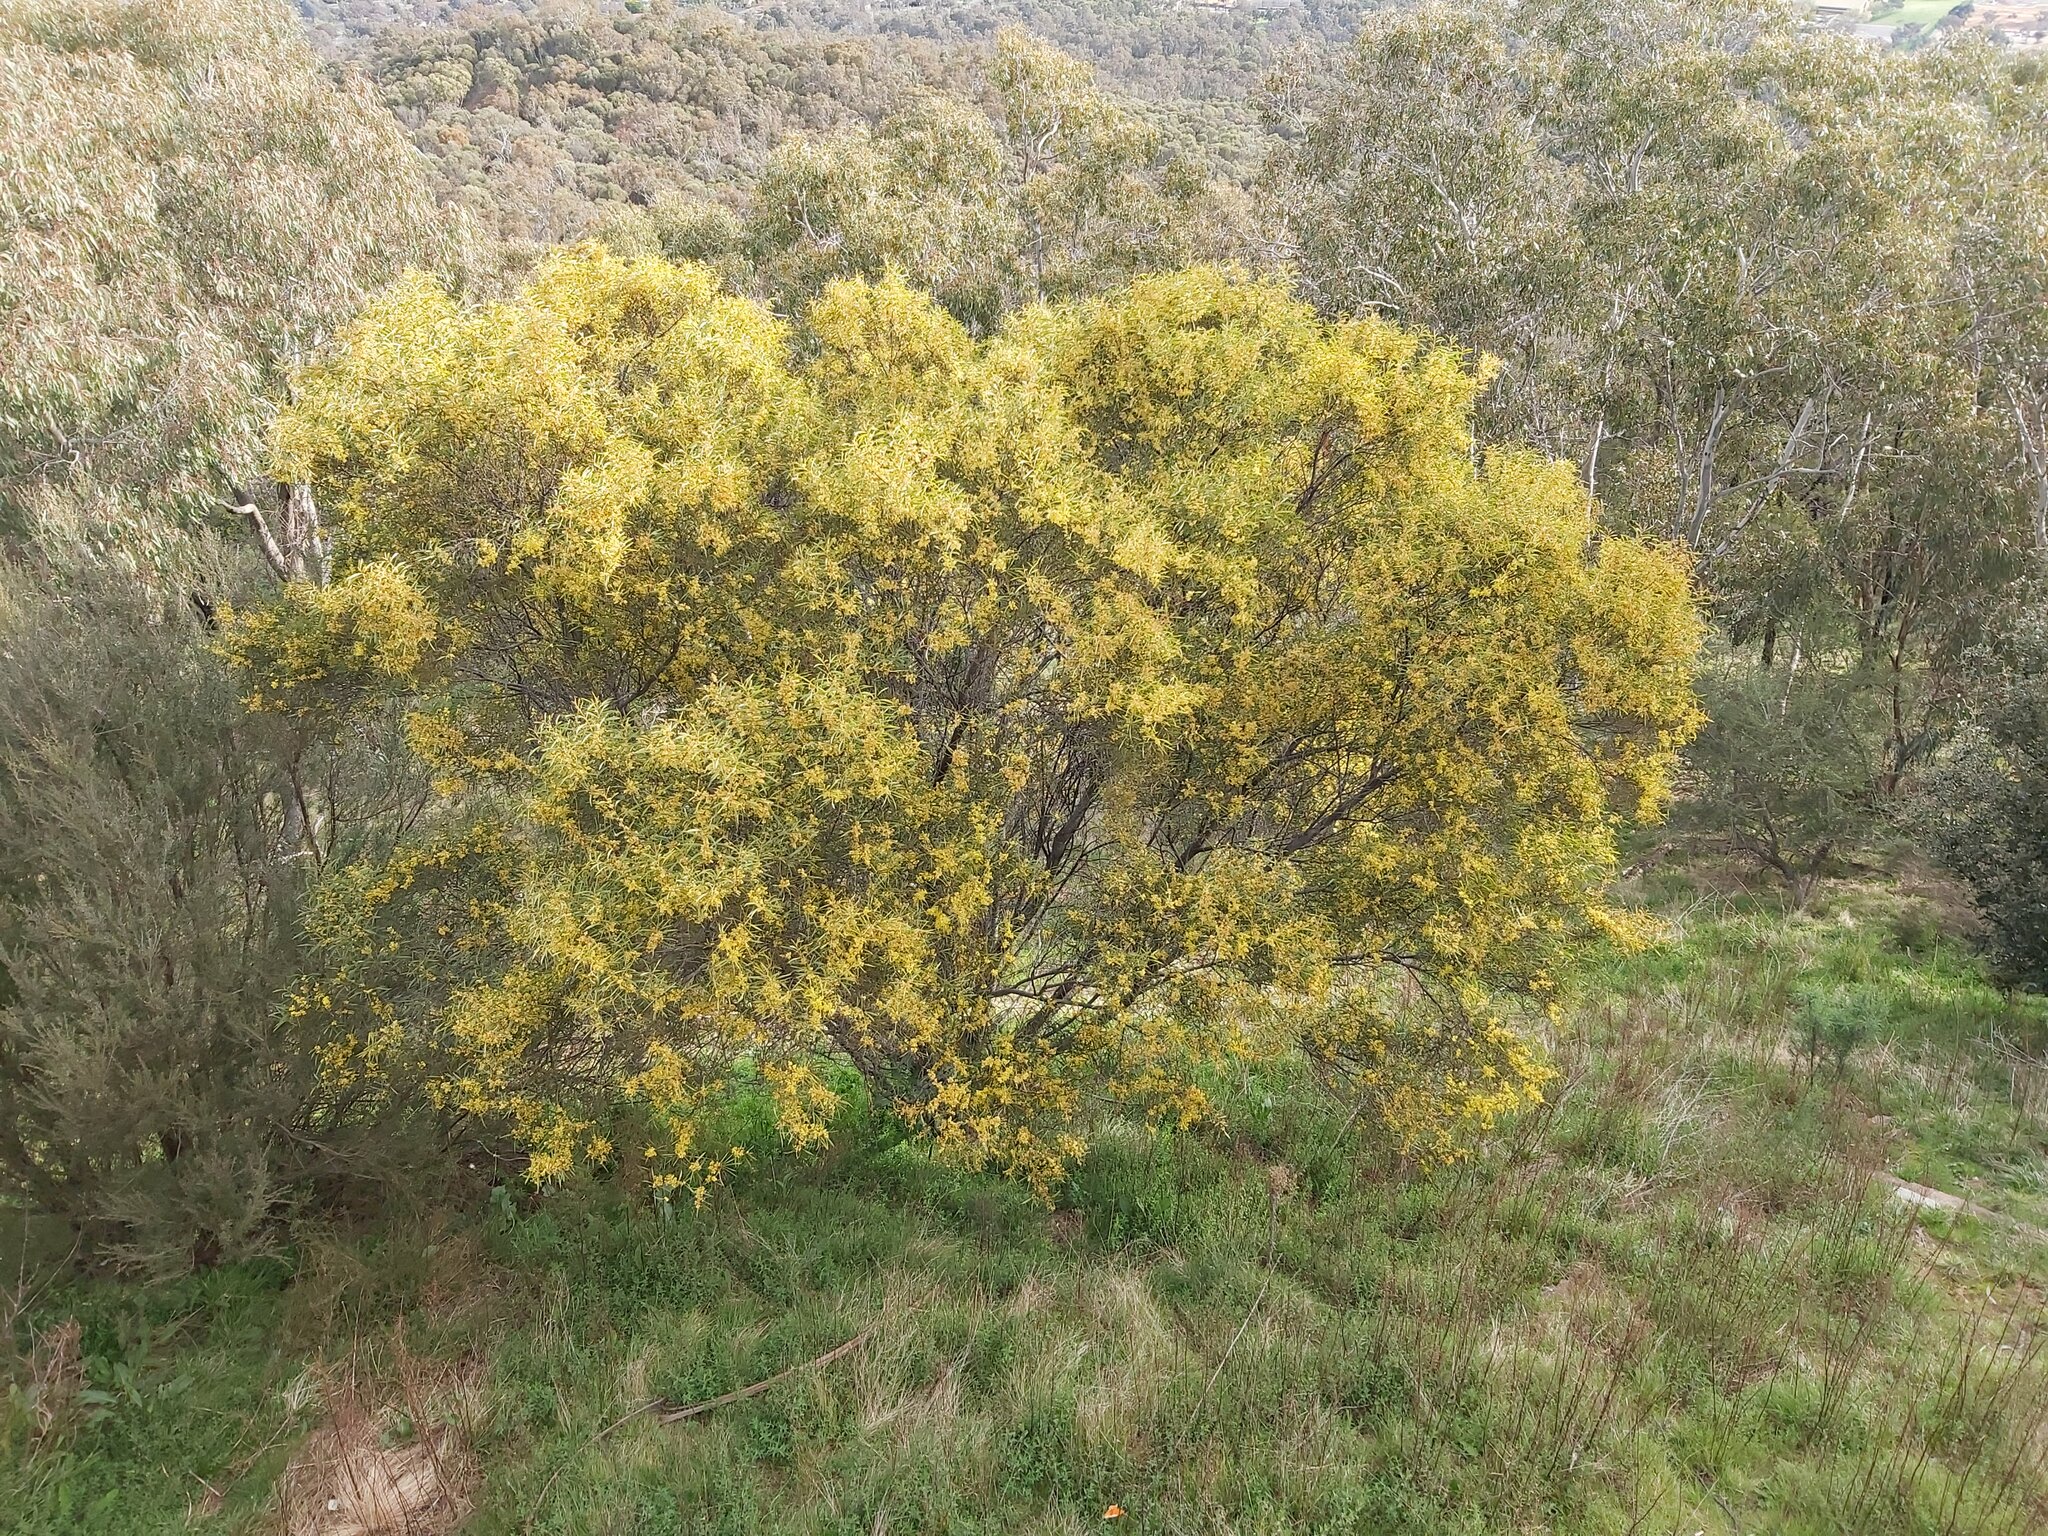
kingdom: Plantae
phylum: Tracheophyta
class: Magnoliopsida
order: Fabales
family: Fabaceae
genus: Acacia
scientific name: Acacia rubida
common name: Red leaf wattle
